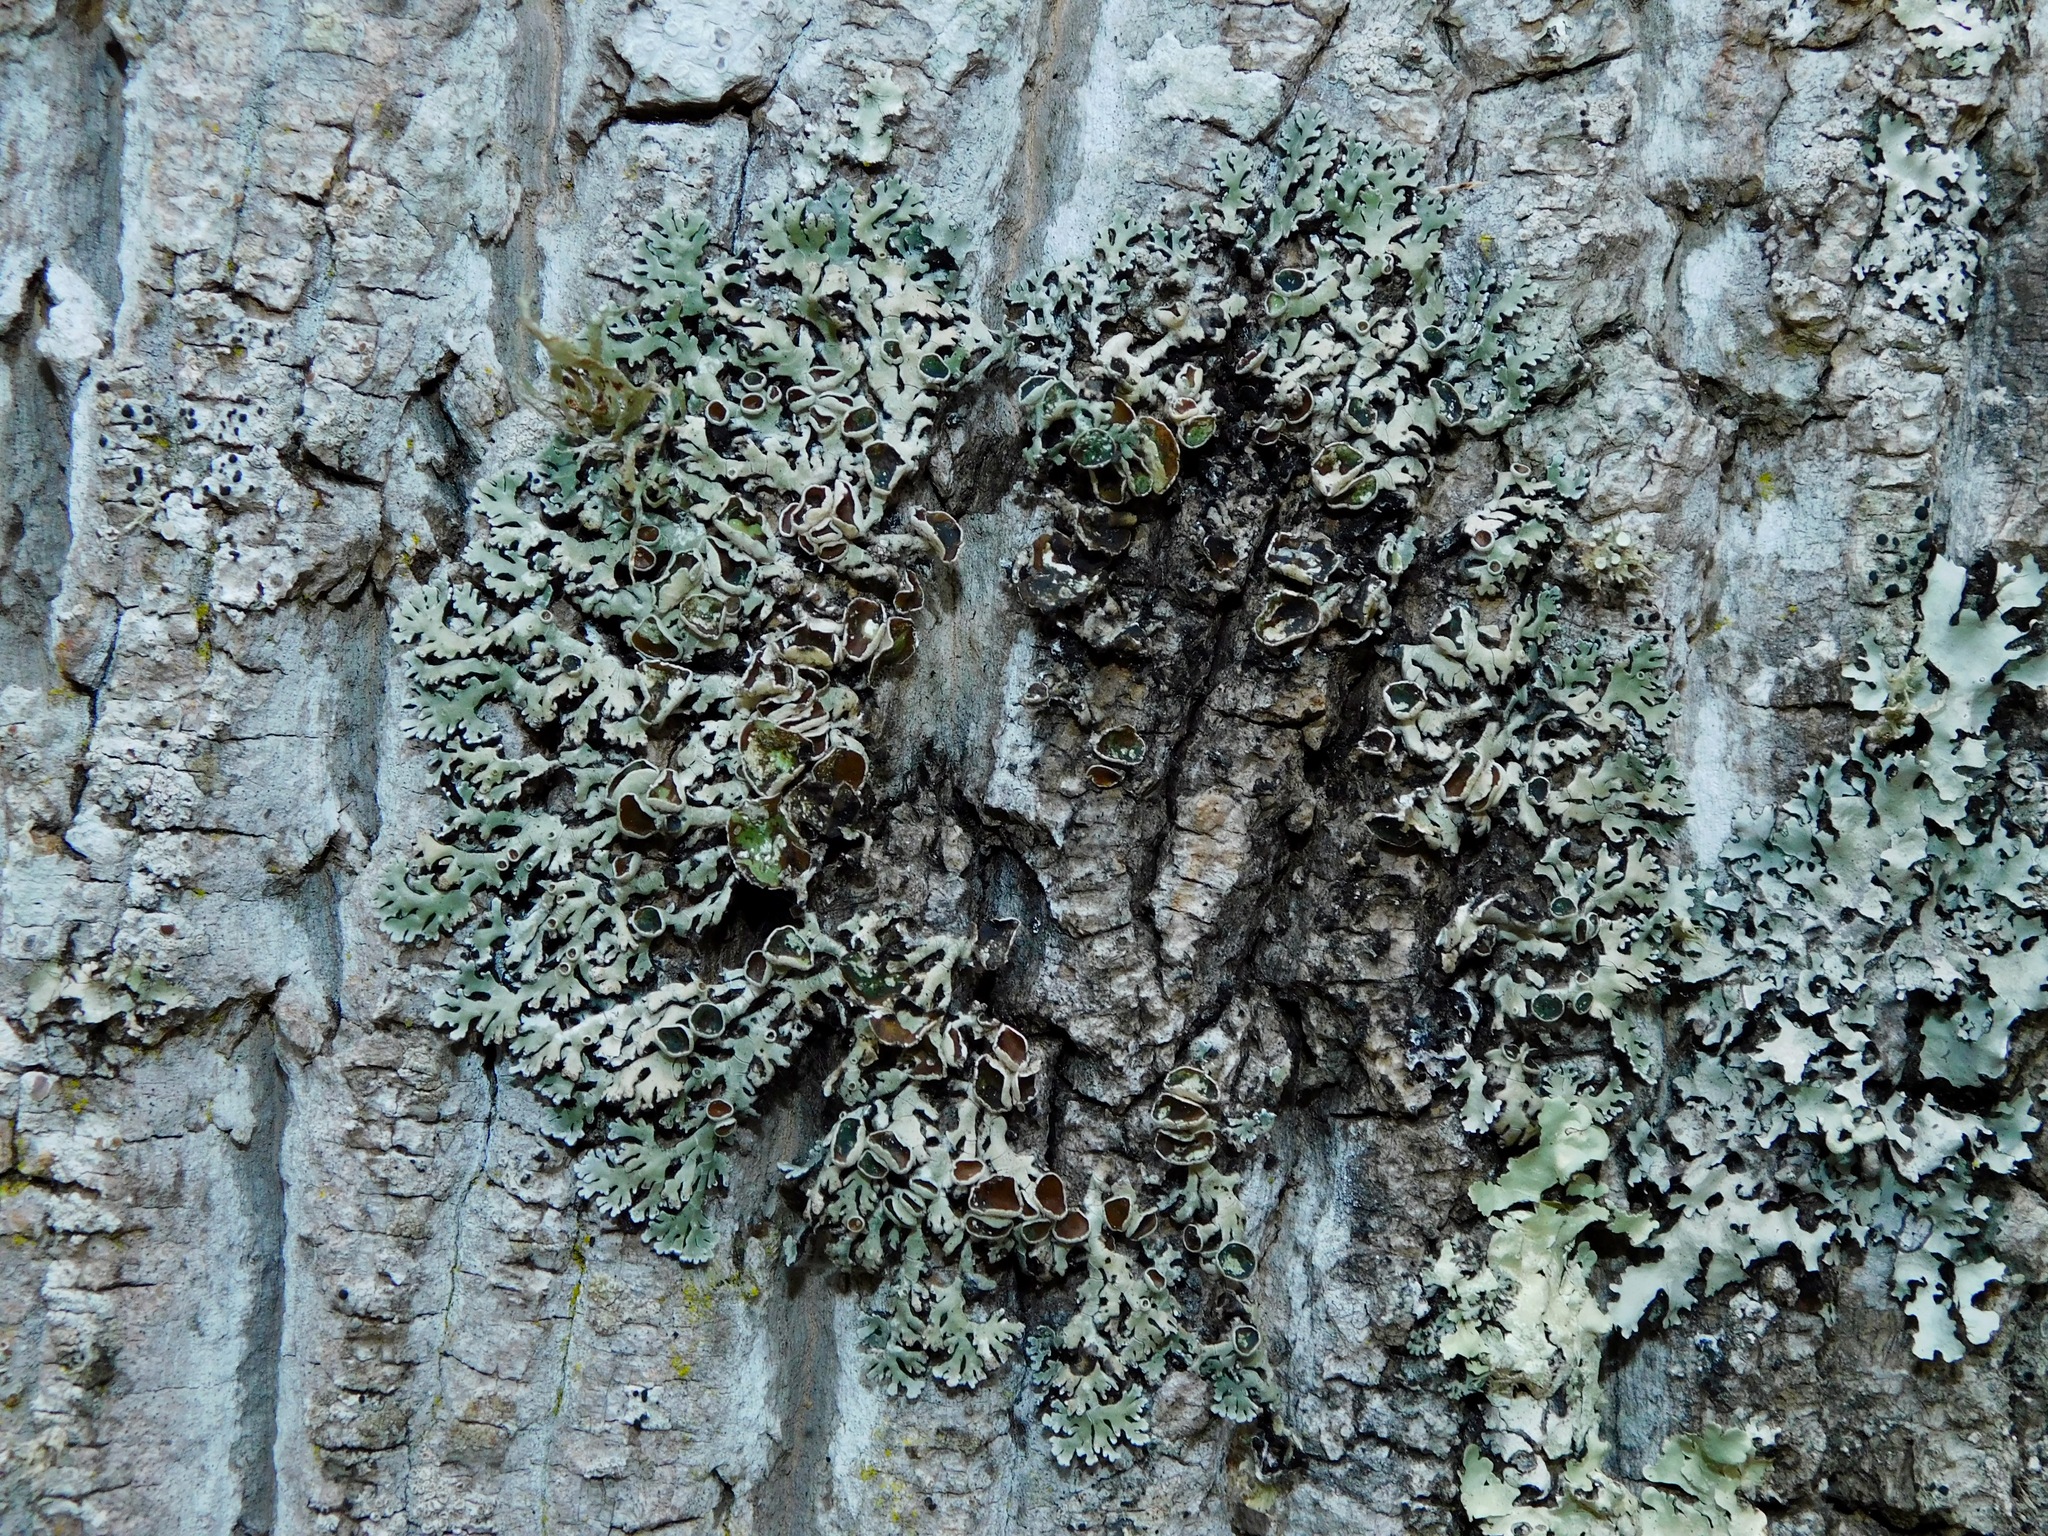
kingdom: Fungi
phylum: Ascomycota
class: Lecanoromycetes
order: Lecanorales
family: Parmeliaceae
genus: Anzia
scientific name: Anzia colpodes
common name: Black-foam lichen
